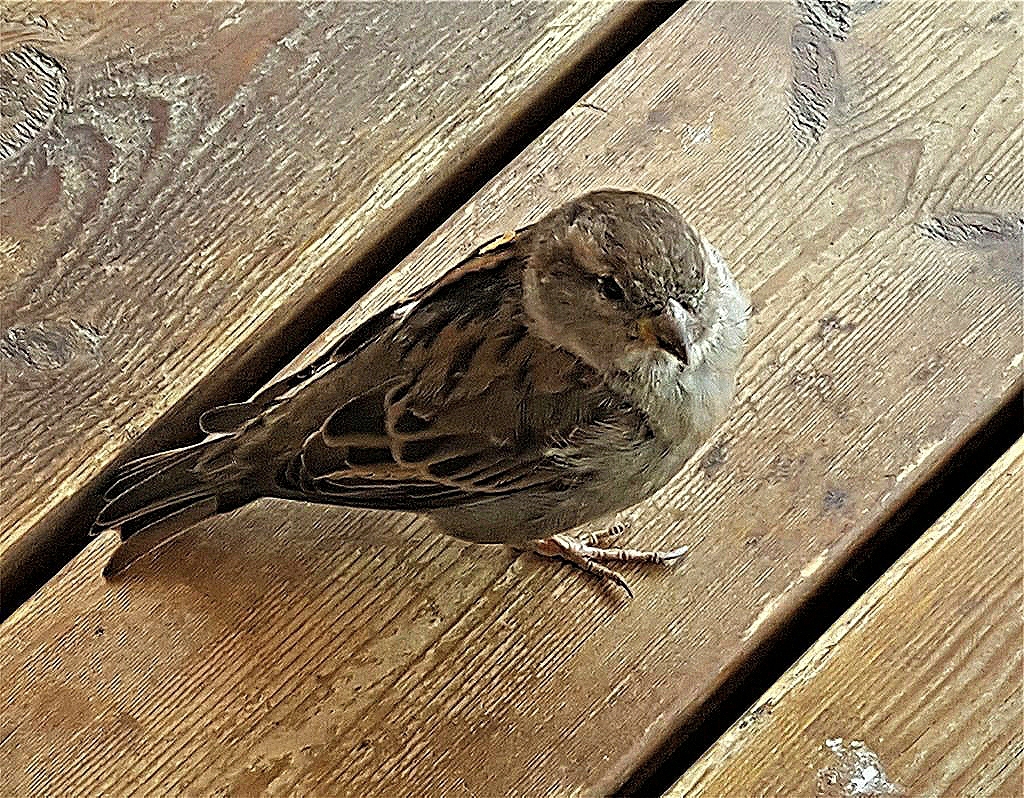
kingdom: Animalia
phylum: Chordata
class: Aves
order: Passeriformes
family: Passeridae
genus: Passer
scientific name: Passer domesticus
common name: House sparrow
